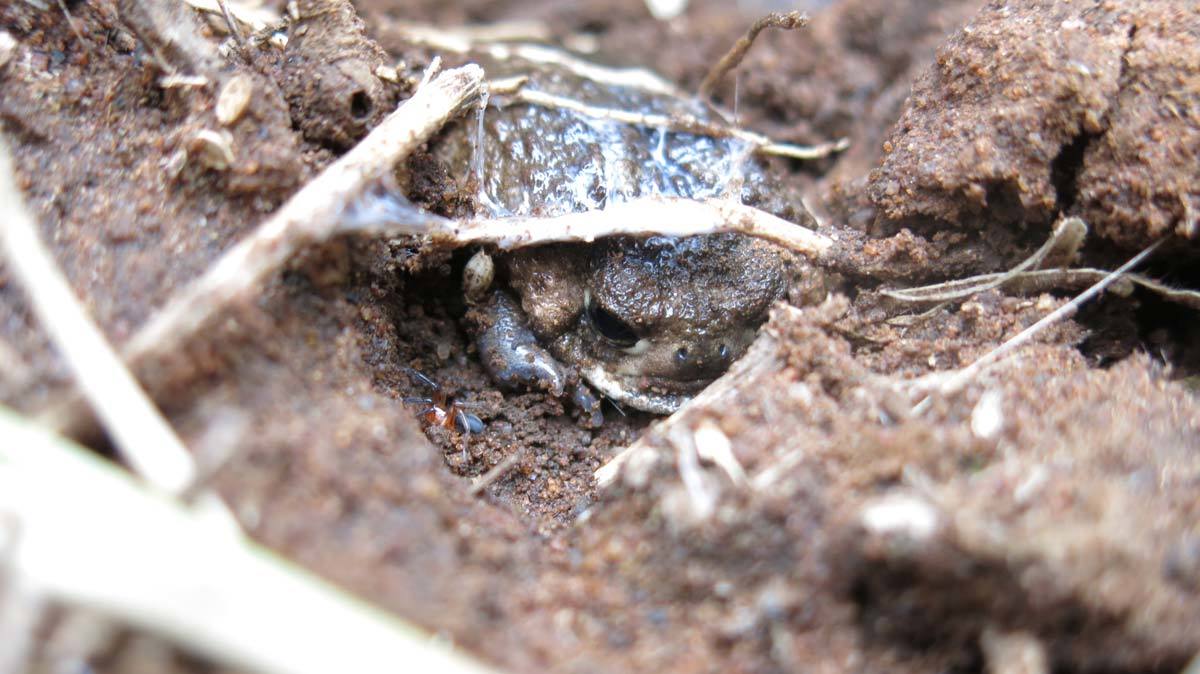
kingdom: Animalia
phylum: Chordata
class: Amphibia
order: Anura
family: Brevicipitidae
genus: Breviceps
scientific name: Breviceps adspersus
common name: Common rain frog
